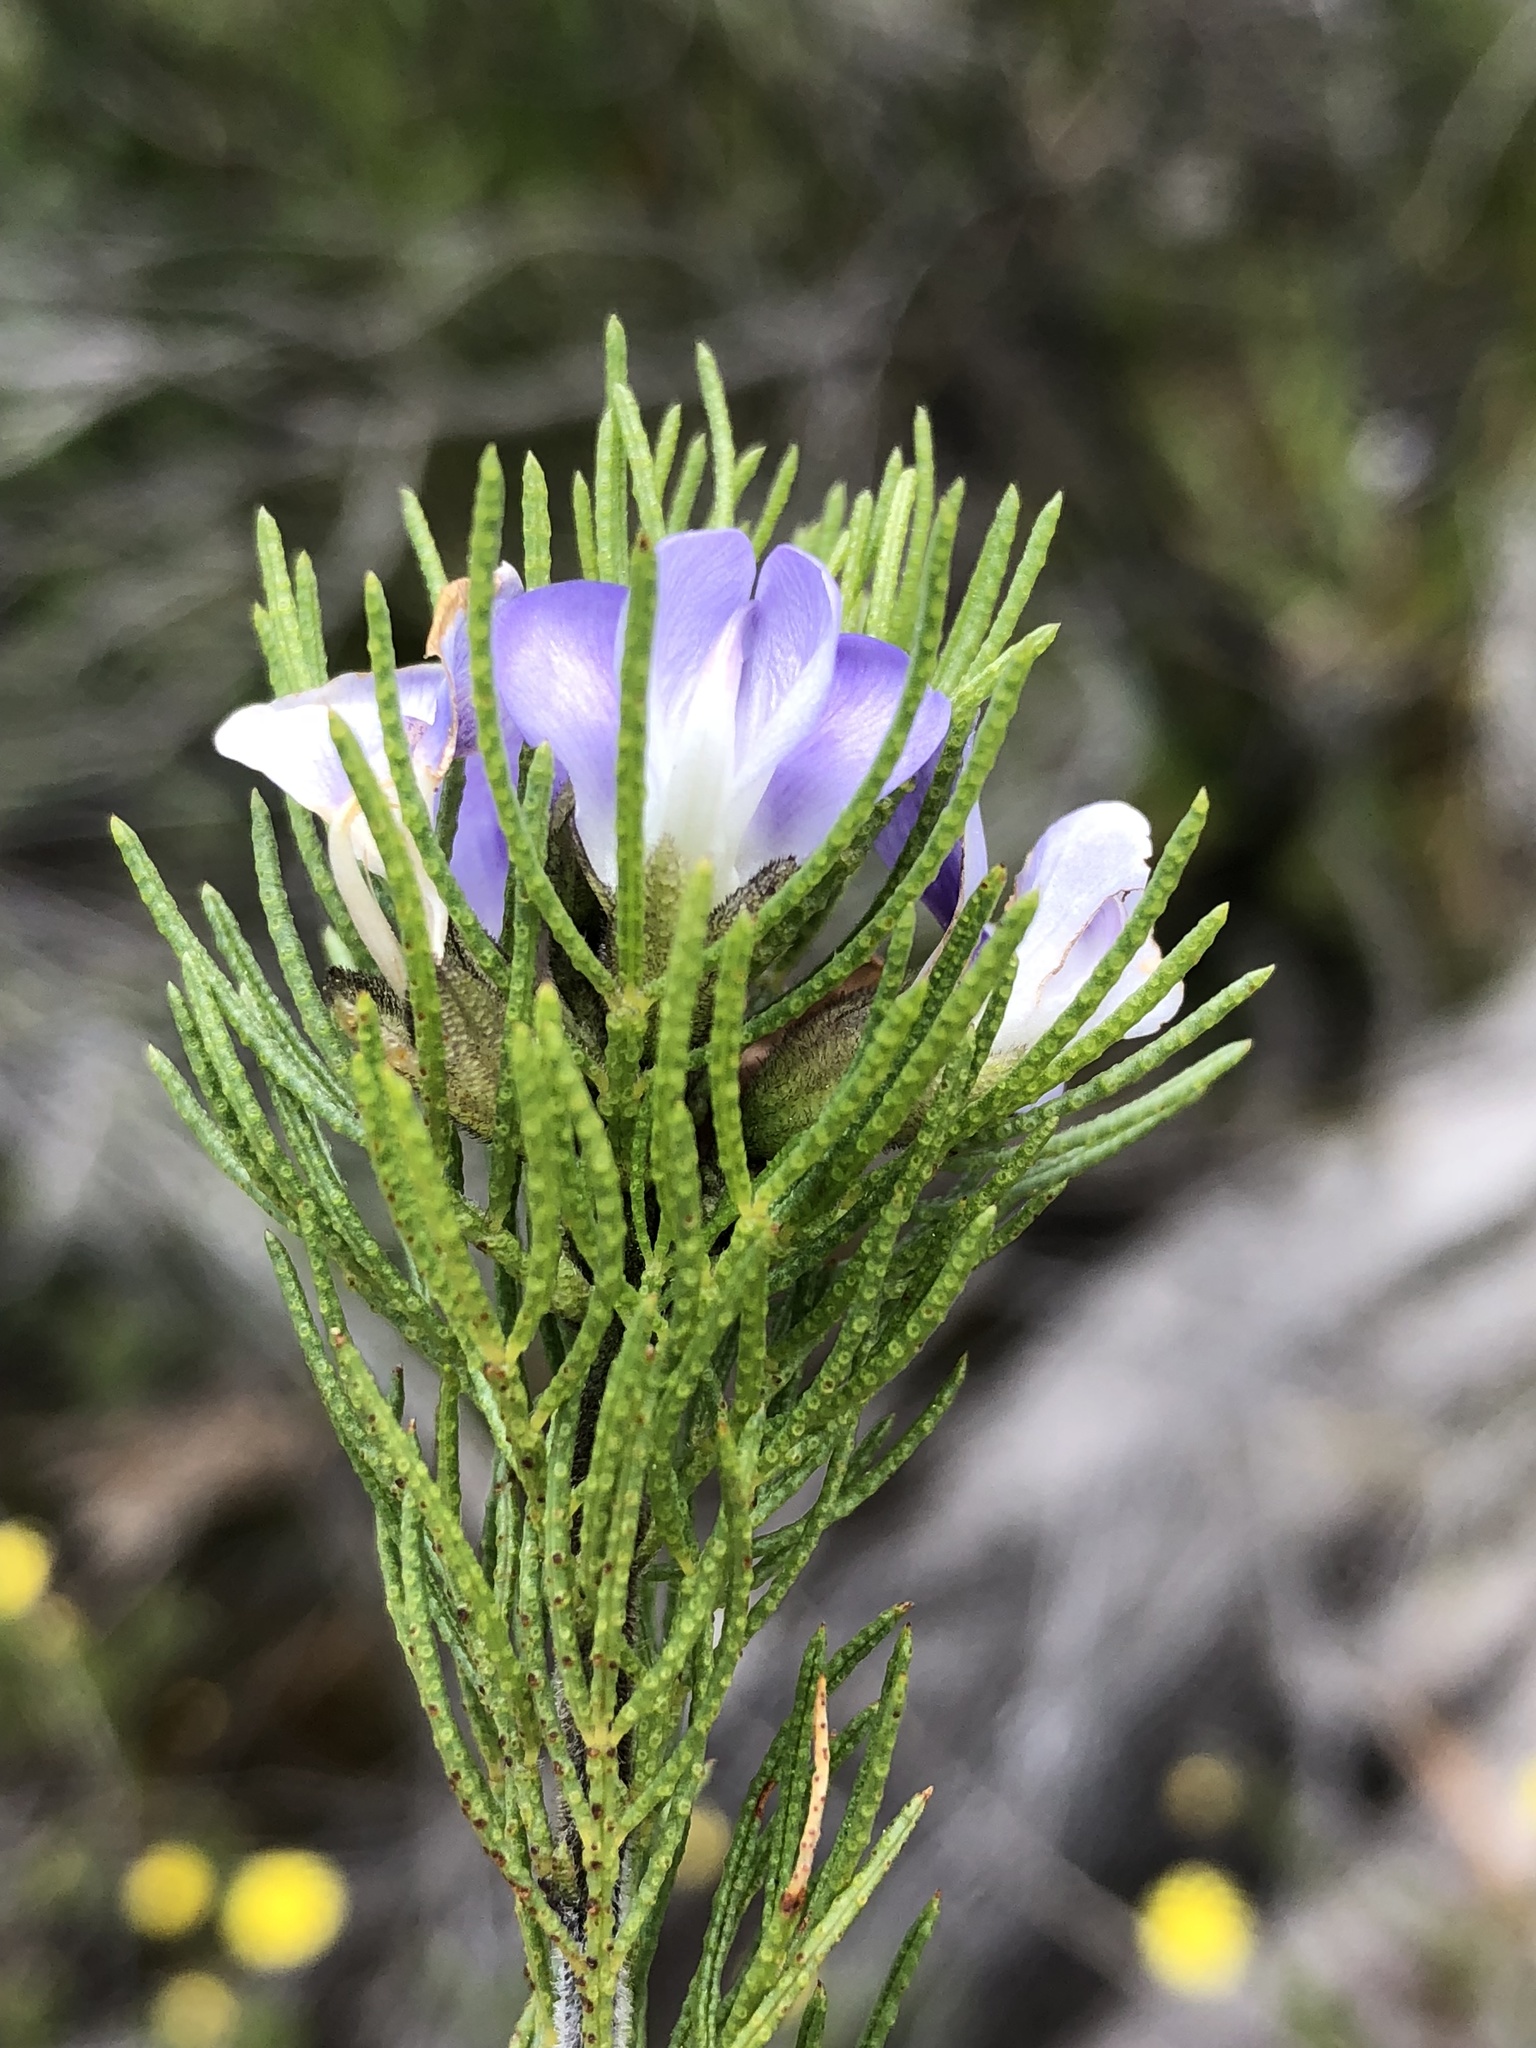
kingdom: Plantae
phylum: Tracheophyta
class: Magnoliopsida
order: Fabales
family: Fabaceae
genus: Psoralea
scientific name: Psoralea kougaensis
